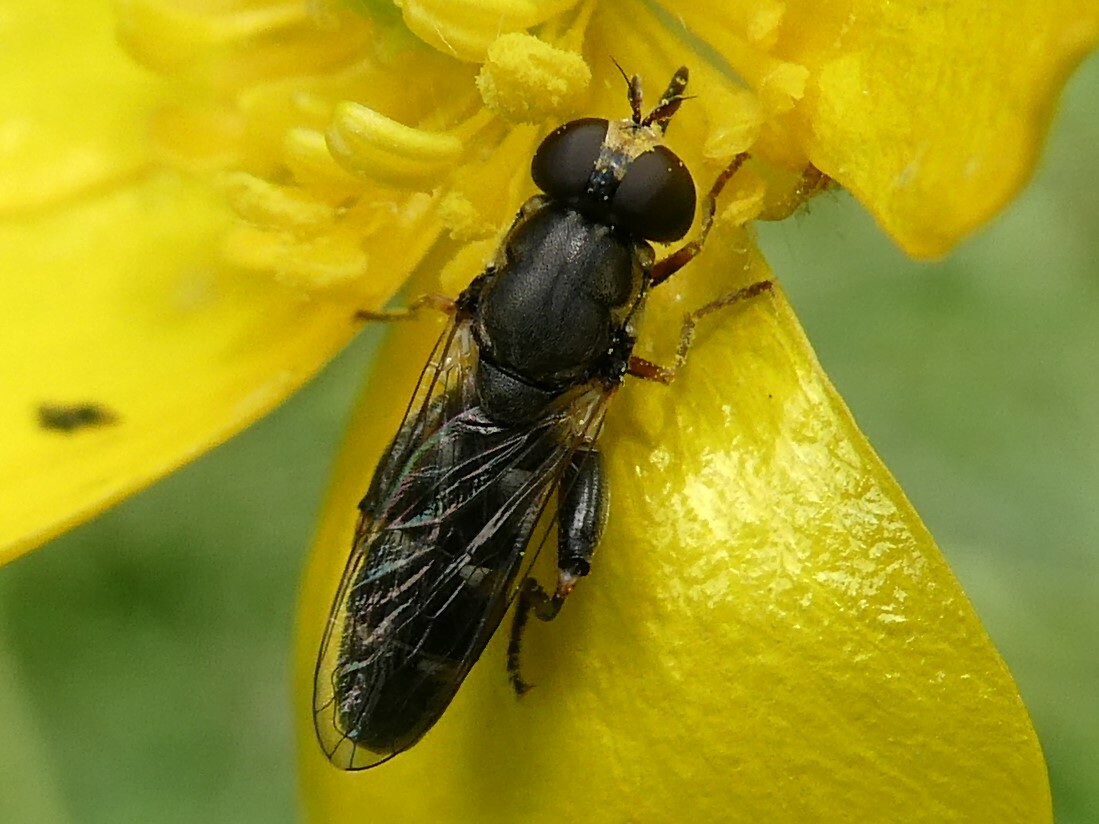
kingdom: Animalia
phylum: Arthropoda
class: Insecta
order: Diptera
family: Syrphidae
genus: Syritta
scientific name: Syritta pipiens
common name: Hover fly
